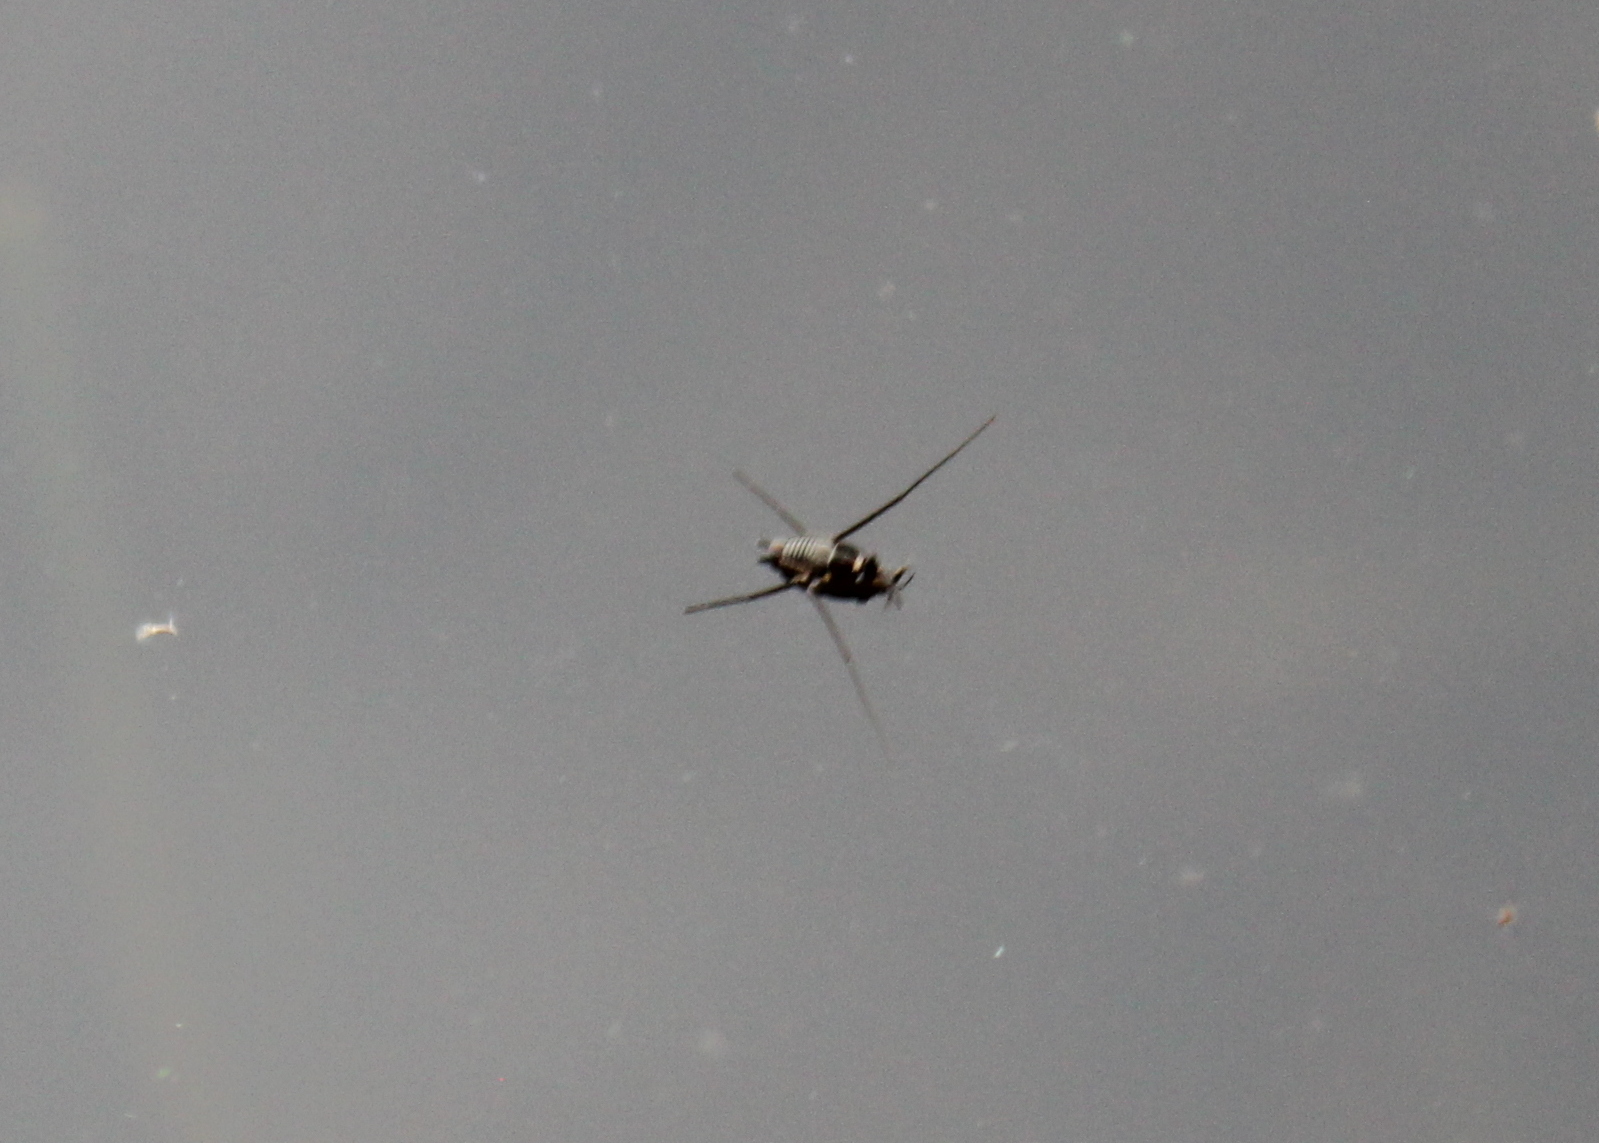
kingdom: Animalia
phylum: Arthropoda
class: Insecta
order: Hemiptera
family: Gerridae
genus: Rheumatobates
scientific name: Rheumatobates
